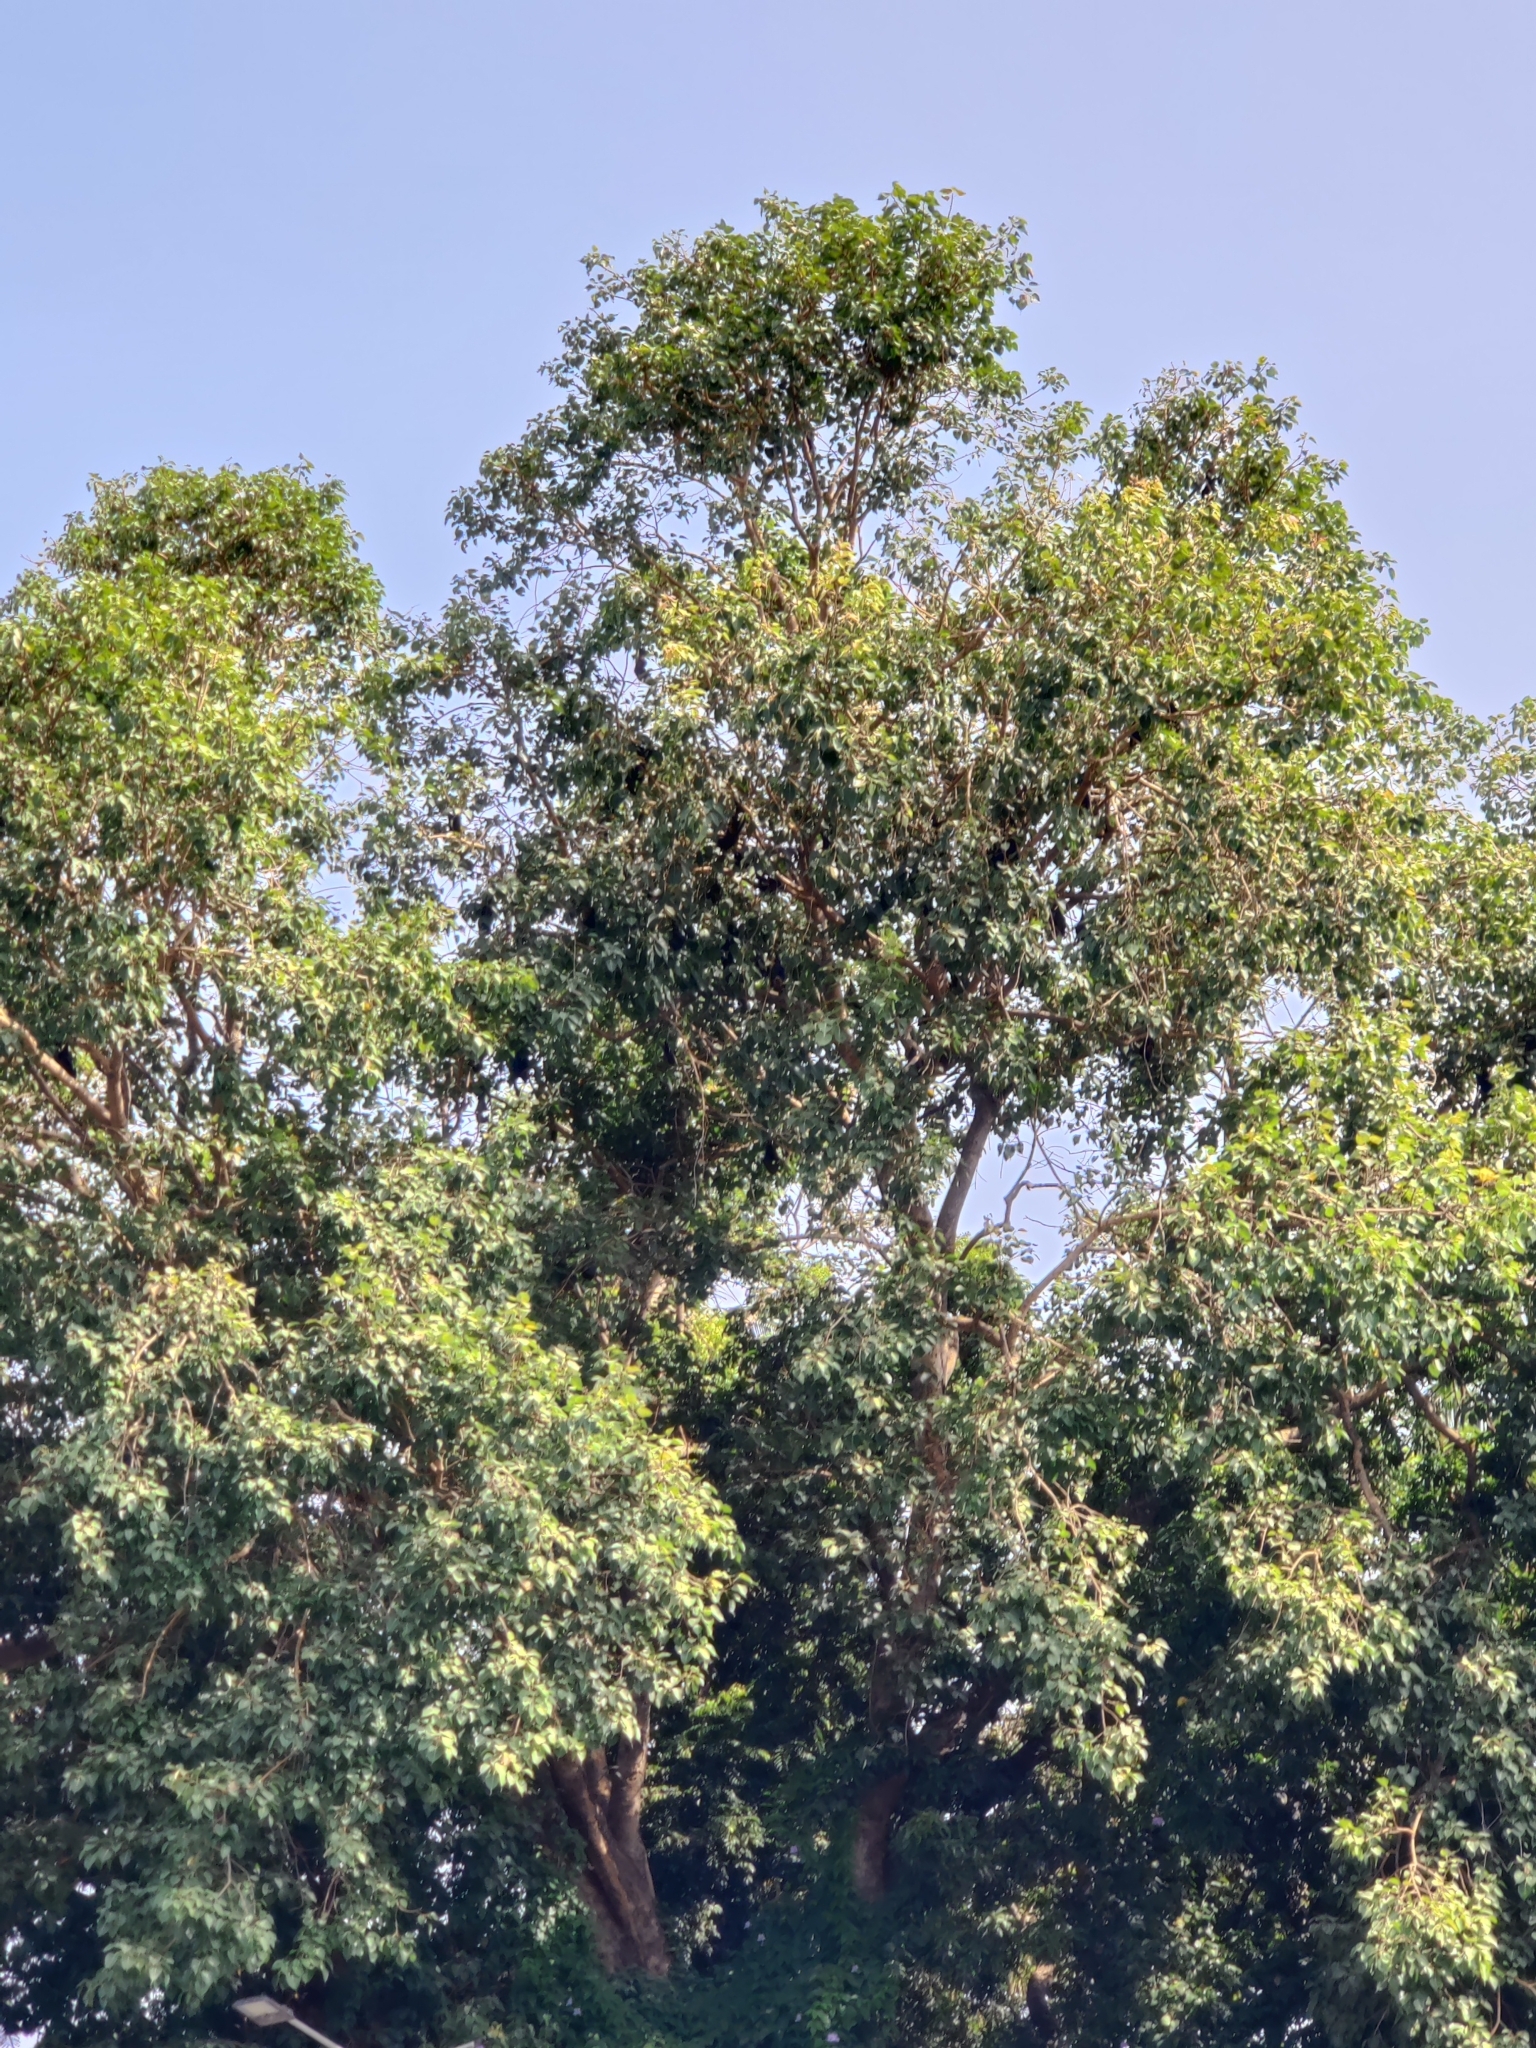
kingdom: Animalia
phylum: Chordata
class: Mammalia
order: Chiroptera
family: Pteropodidae
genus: Pteropus
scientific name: Pteropus vampyrus
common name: Large flying fox
